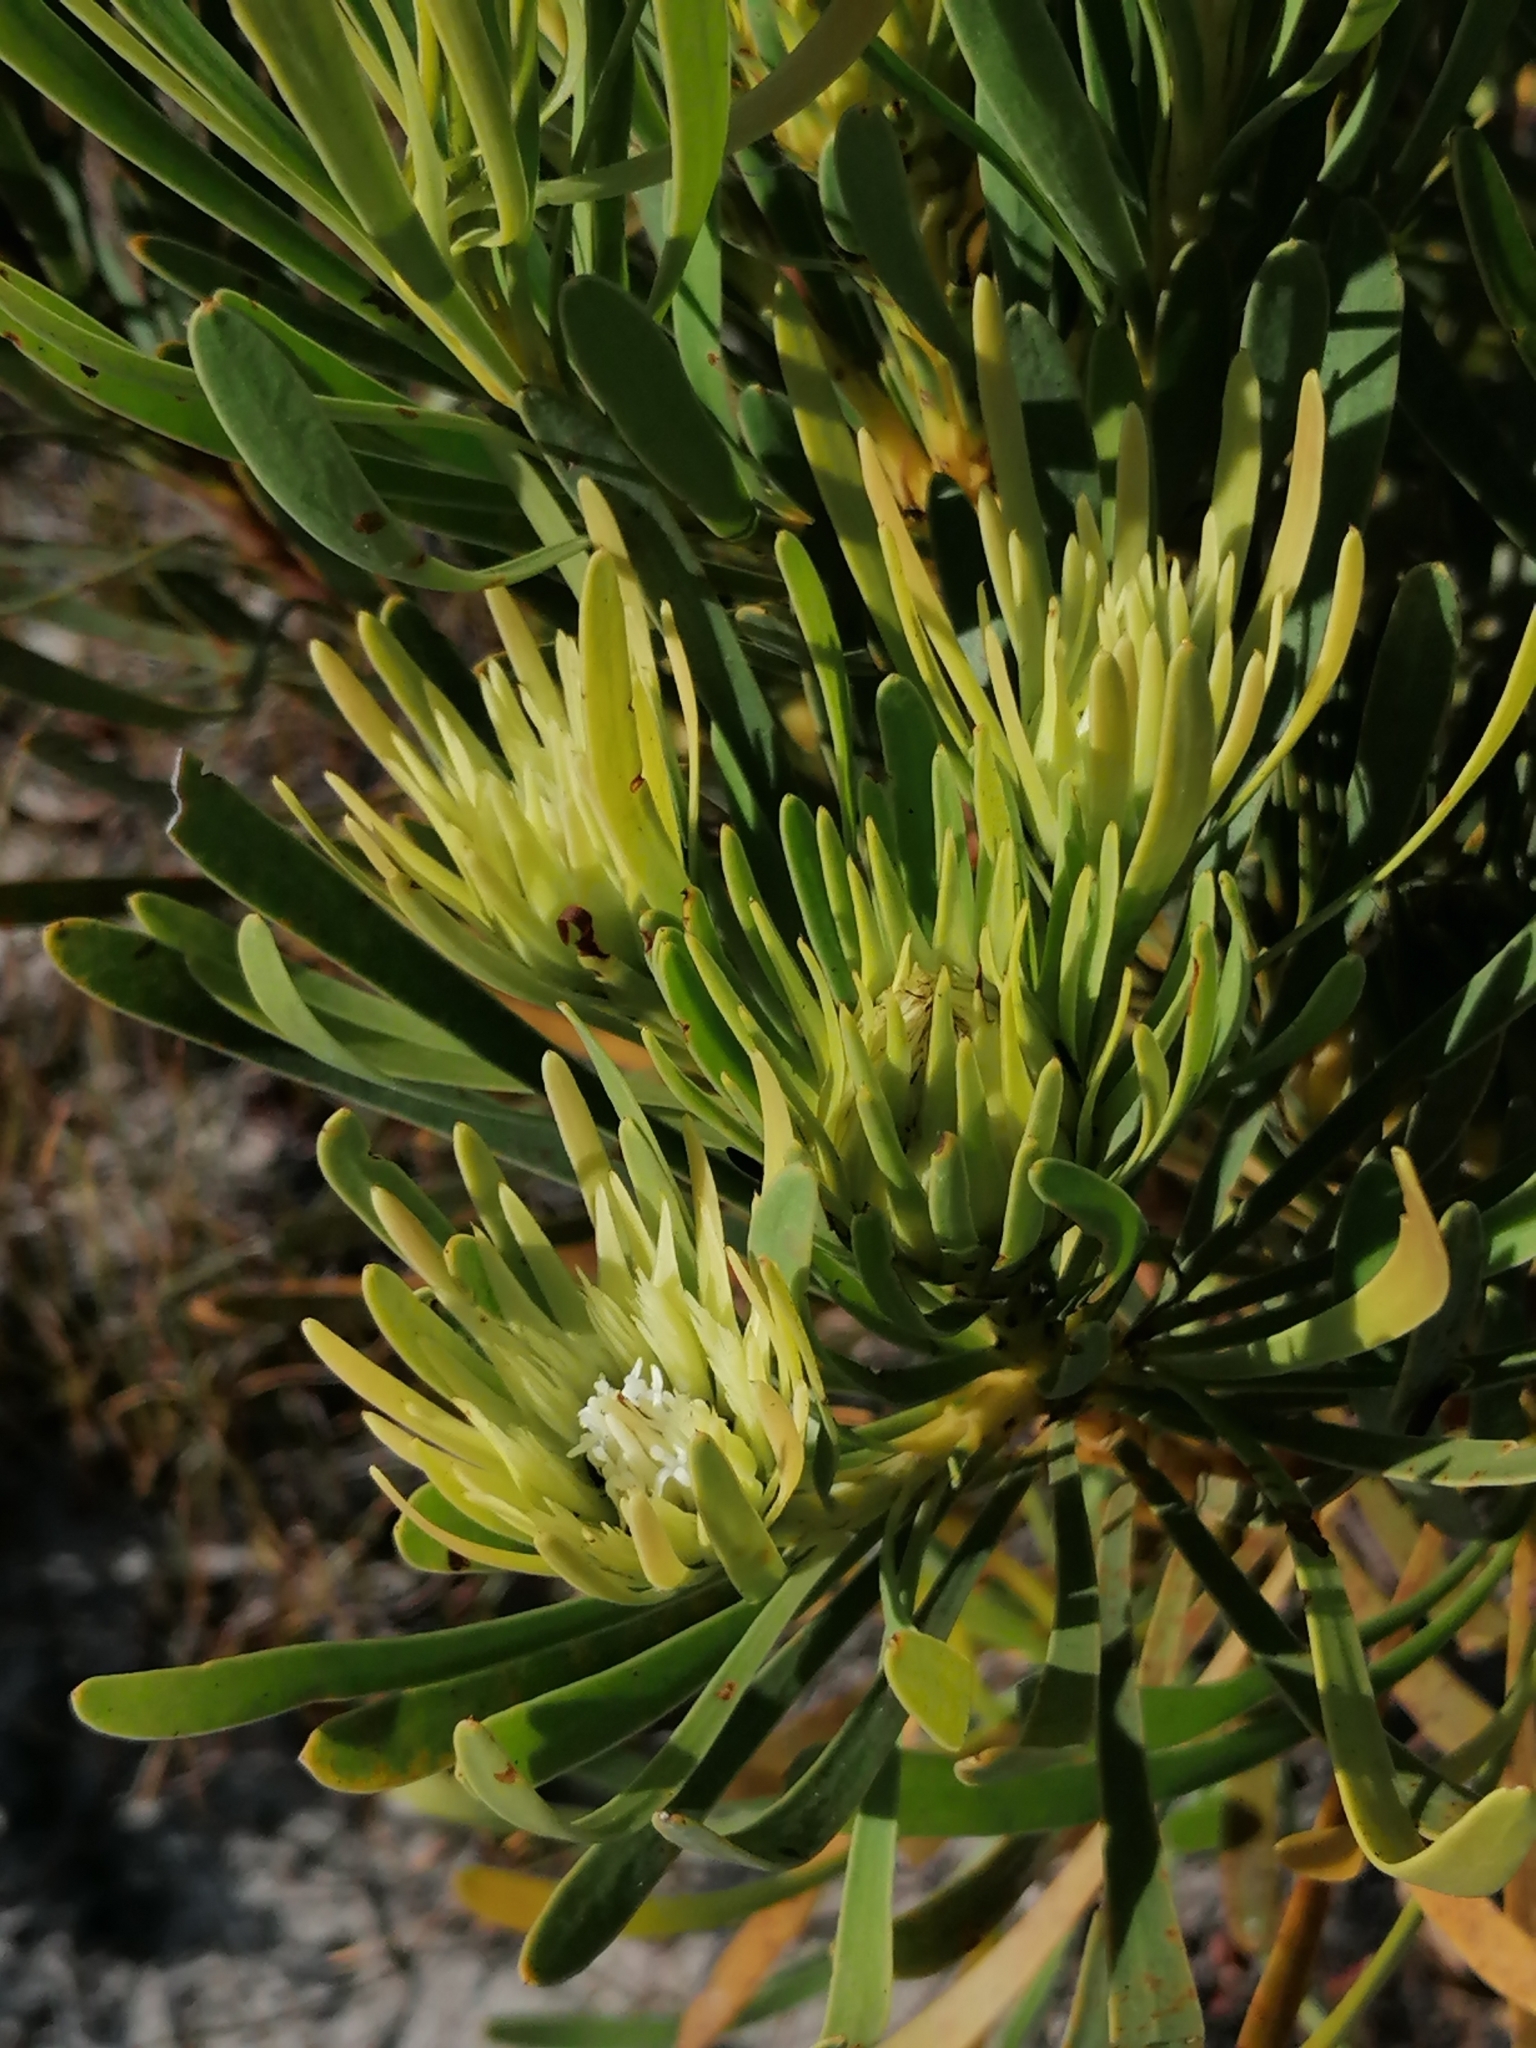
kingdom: Plantae
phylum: Tracheophyta
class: Magnoliopsida
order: Proteales
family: Proteaceae
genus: Aulax
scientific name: Aulax umbellata
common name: Broad-leaf featherbush
